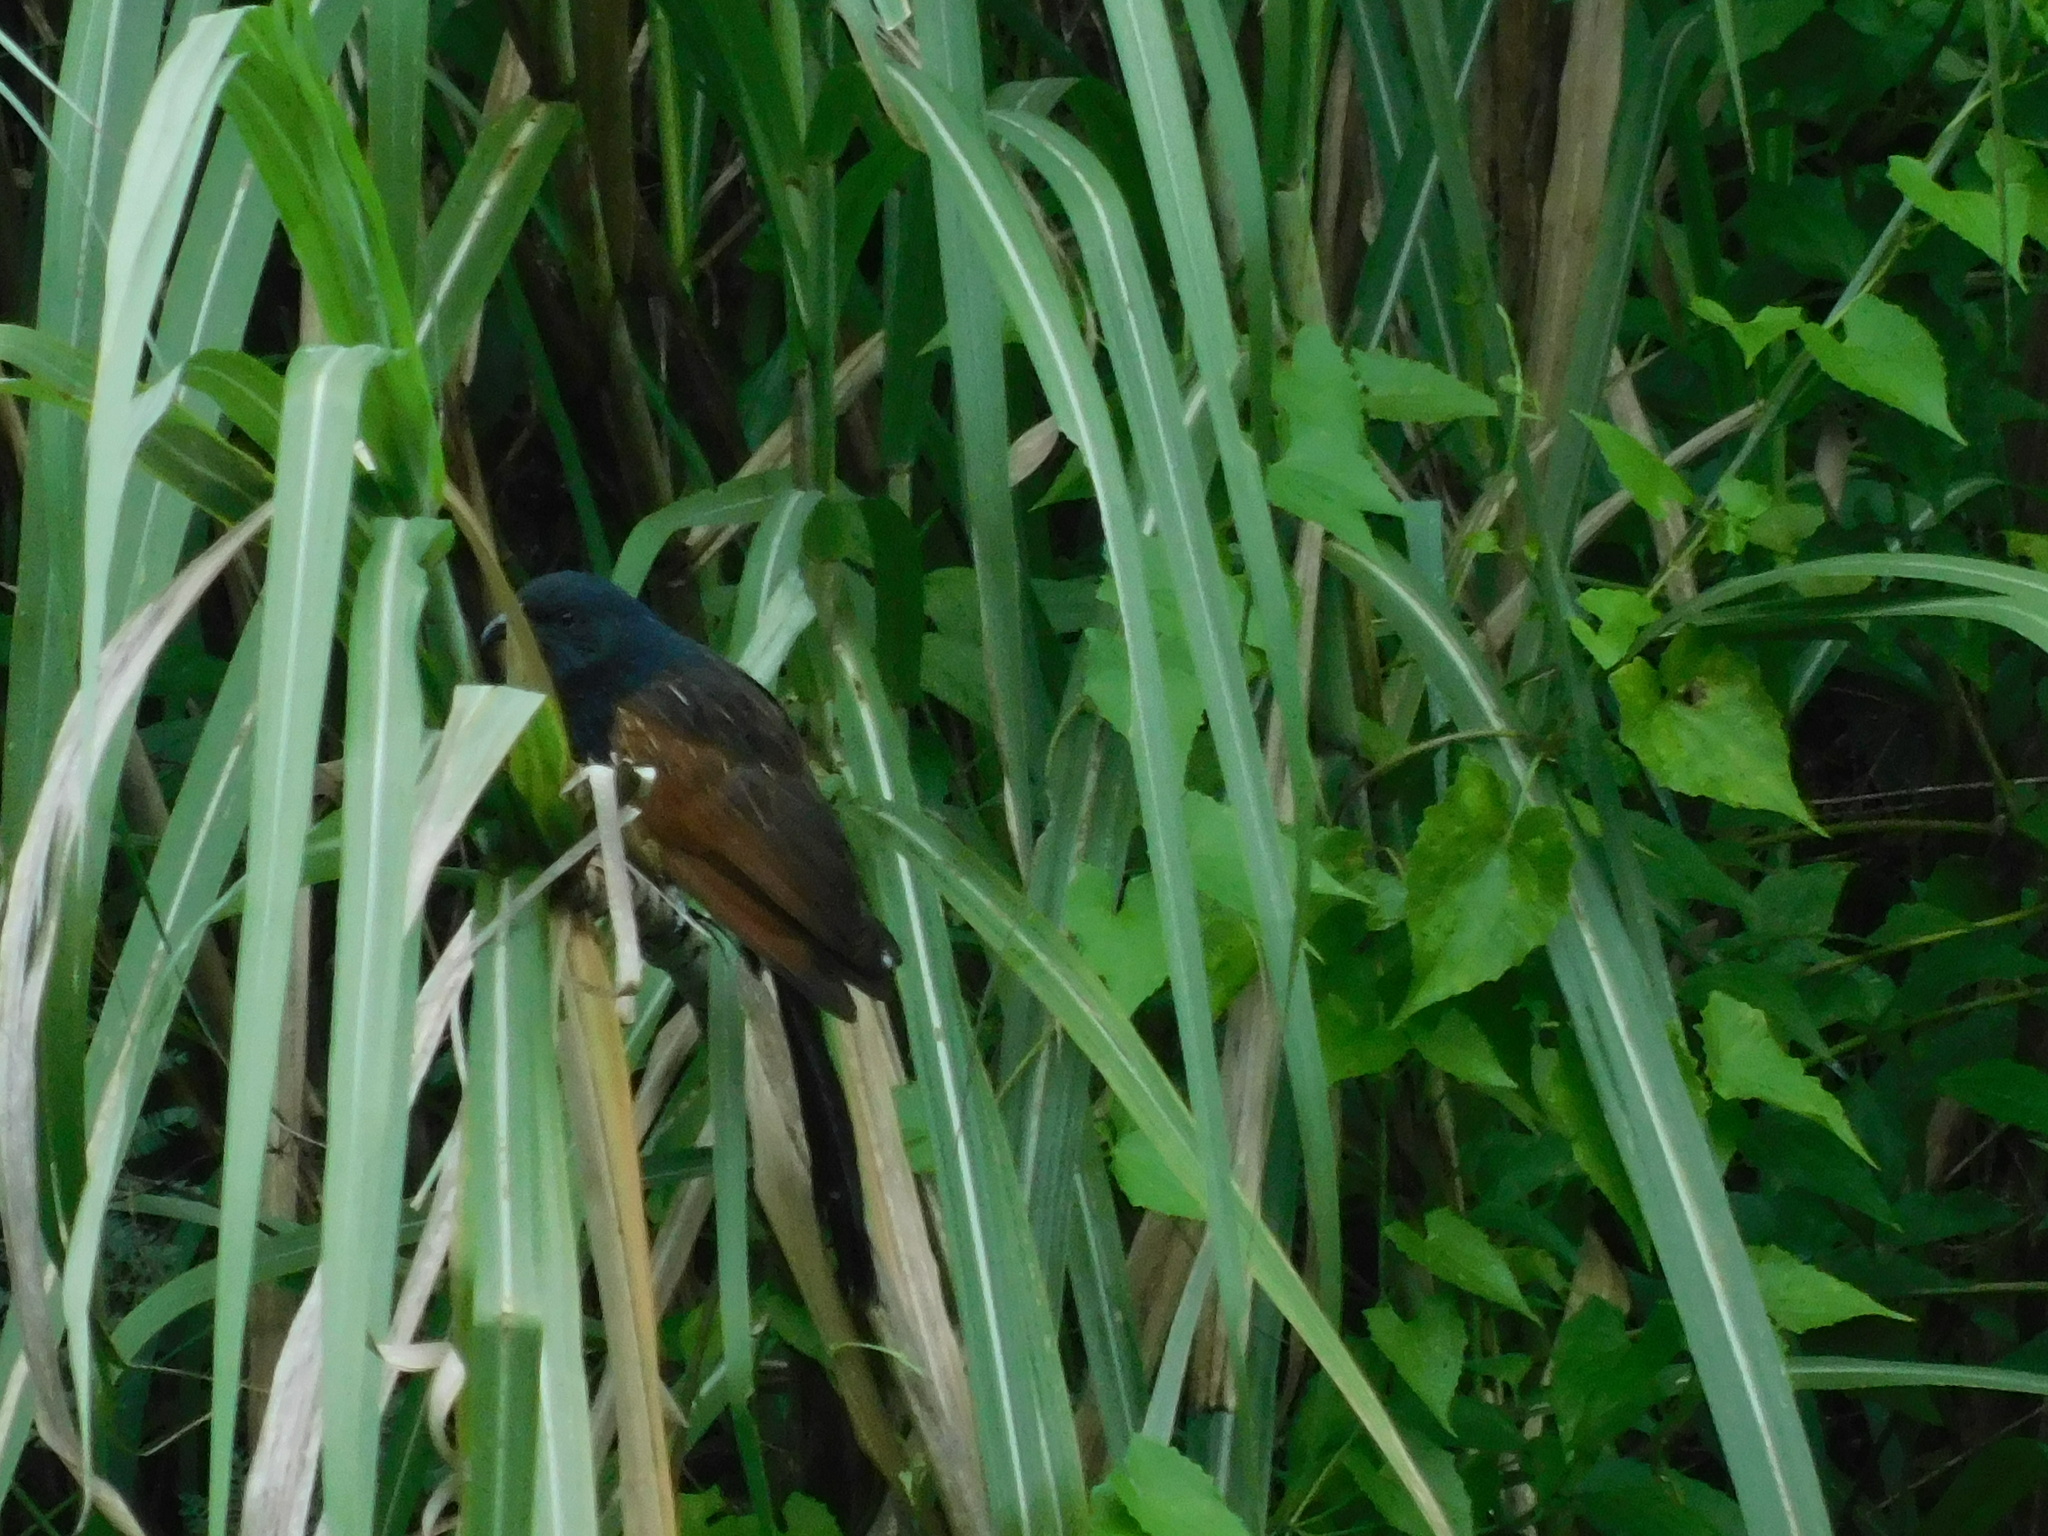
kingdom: Animalia
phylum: Chordata
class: Aves
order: Cuculiformes
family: Cuculidae
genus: Centropus
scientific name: Centropus bengalensis
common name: Lesser coucal
